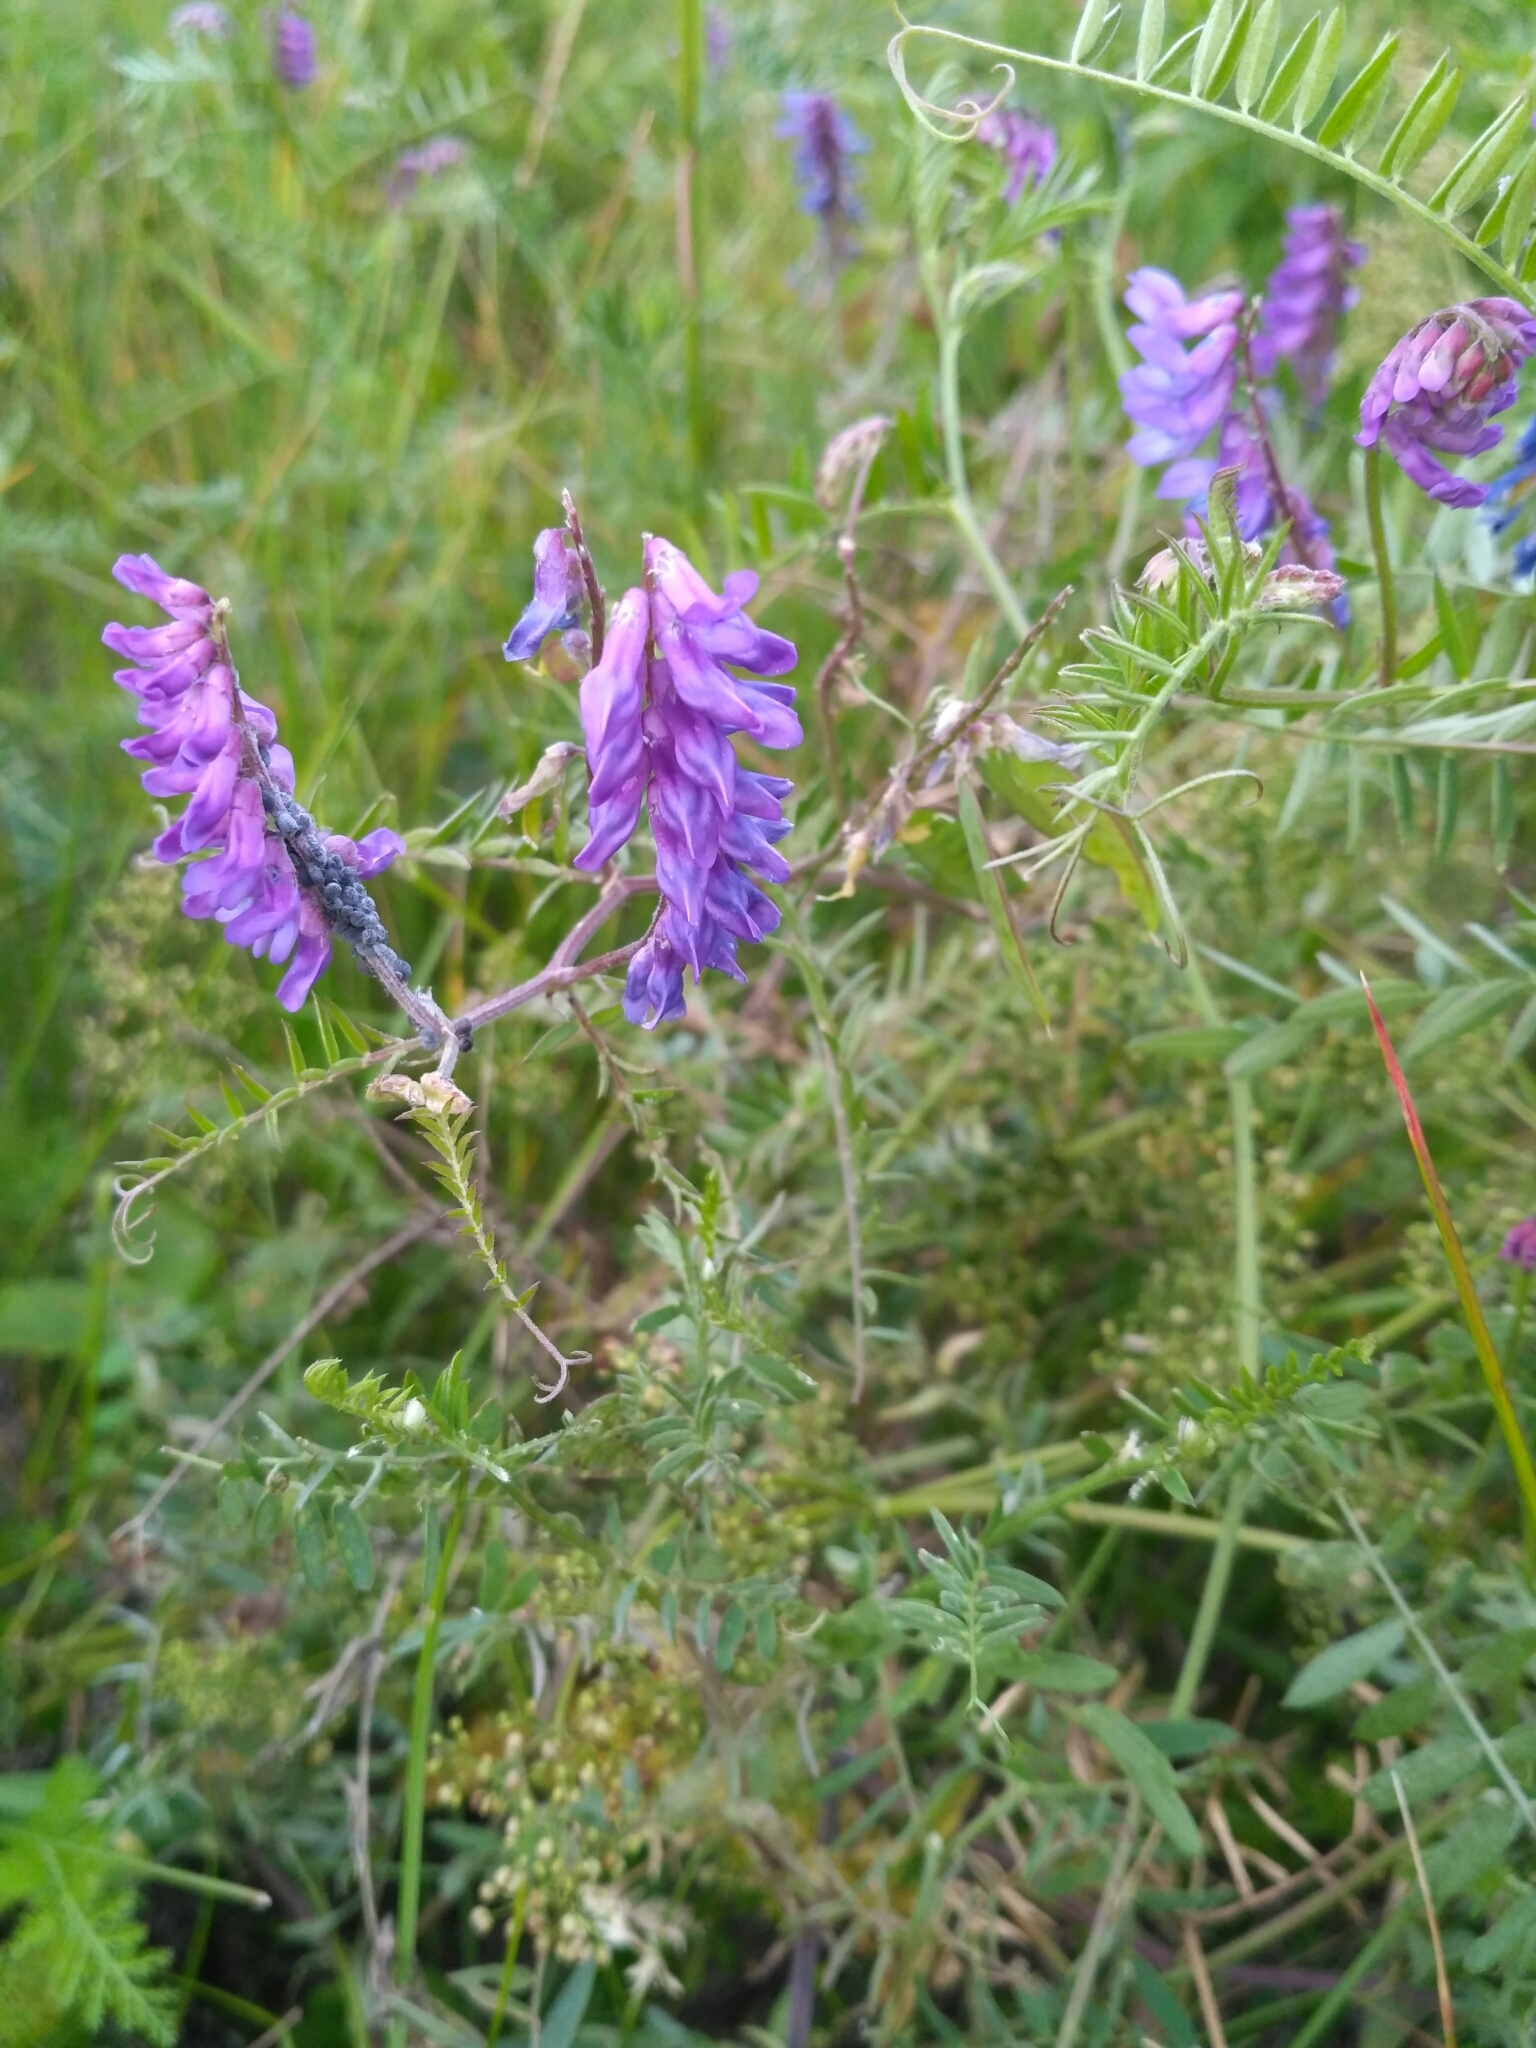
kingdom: Plantae
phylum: Tracheophyta
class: Magnoliopsida
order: Fabales
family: Fabaceae
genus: Vicia
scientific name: Vicia cracca
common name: Bird vetch
